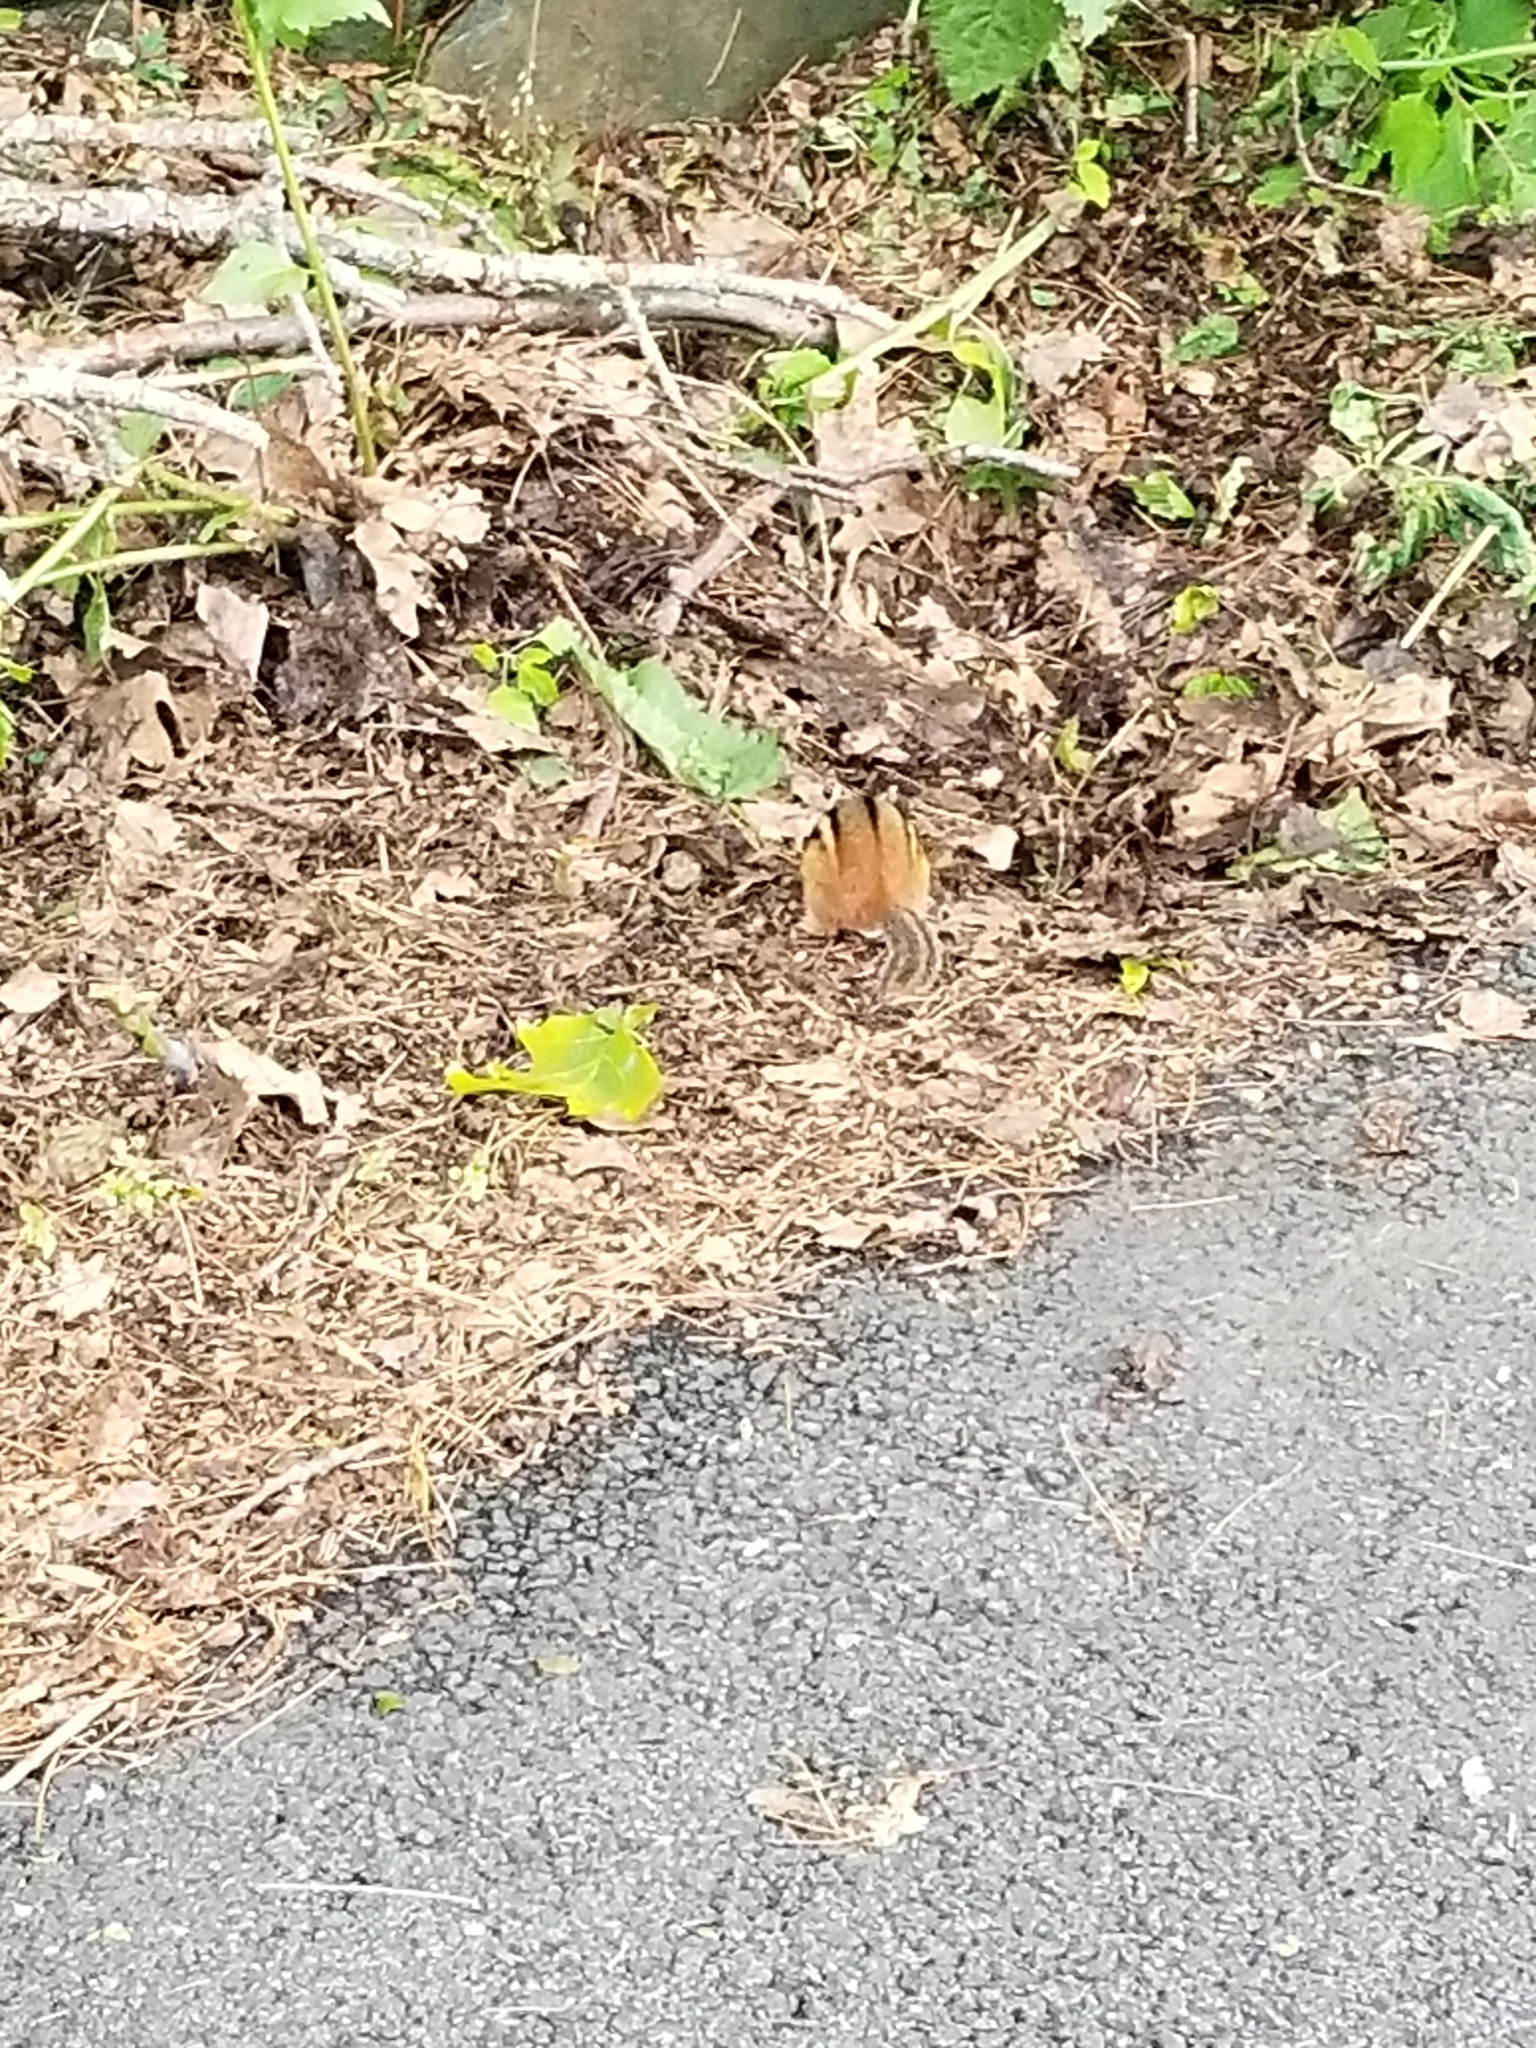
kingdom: Animalia
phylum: Chordata
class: Mammalia
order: Rodentia
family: Sciuridae
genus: Tamias
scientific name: Tamias striatus
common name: Eastern chipmunk
